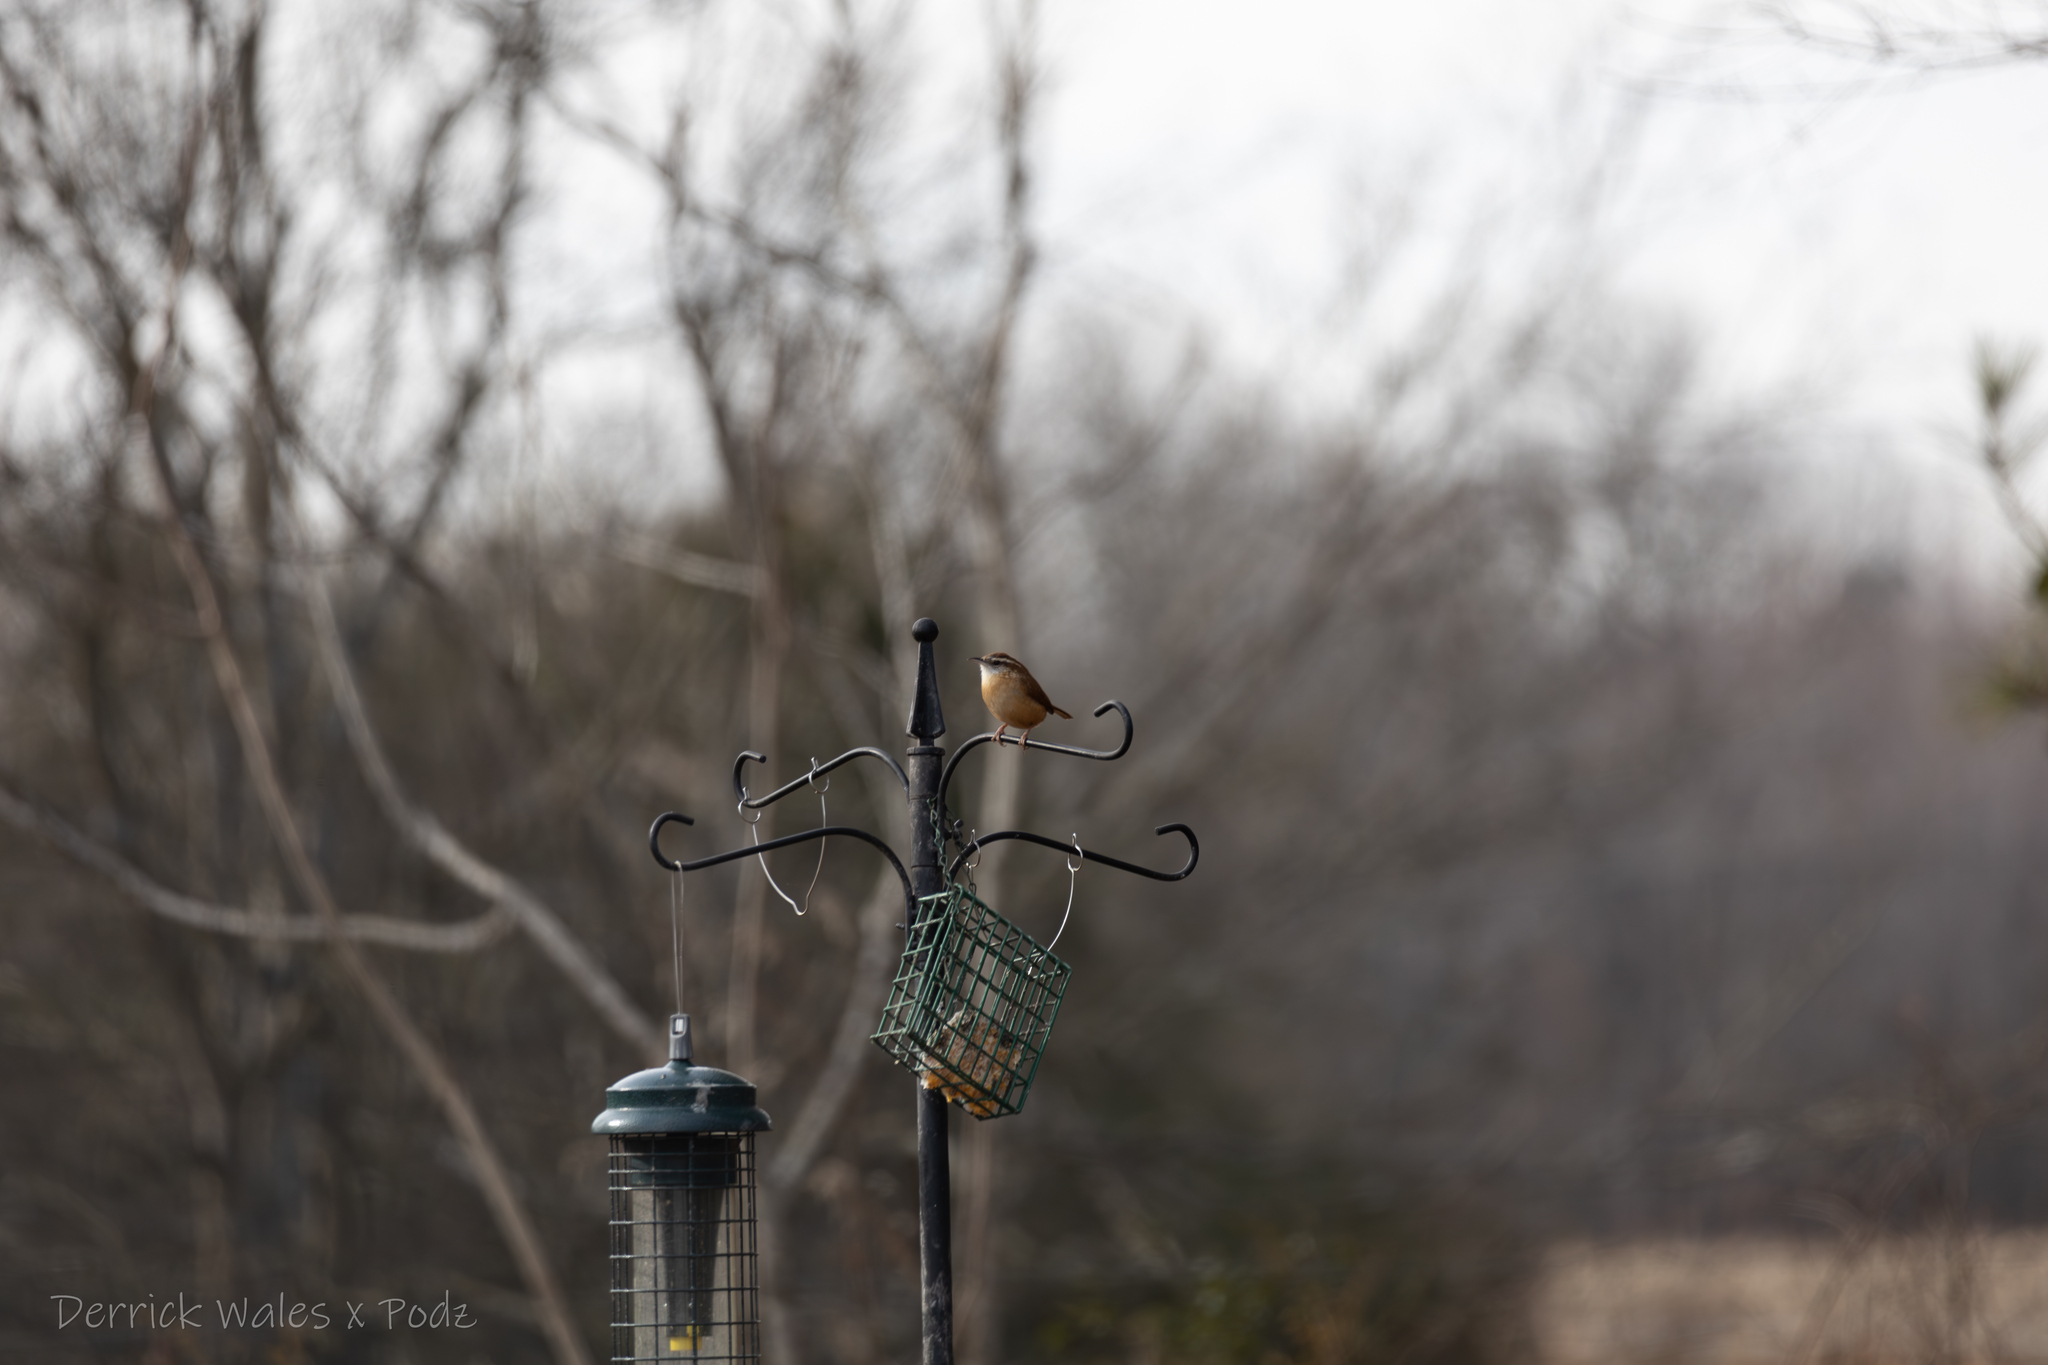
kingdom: Animalia
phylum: Chordata
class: Aves
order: Passeriformes
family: Troglodytidae
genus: Thryothorus
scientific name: Thryothorus ludovicianus
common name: Carolina wren
